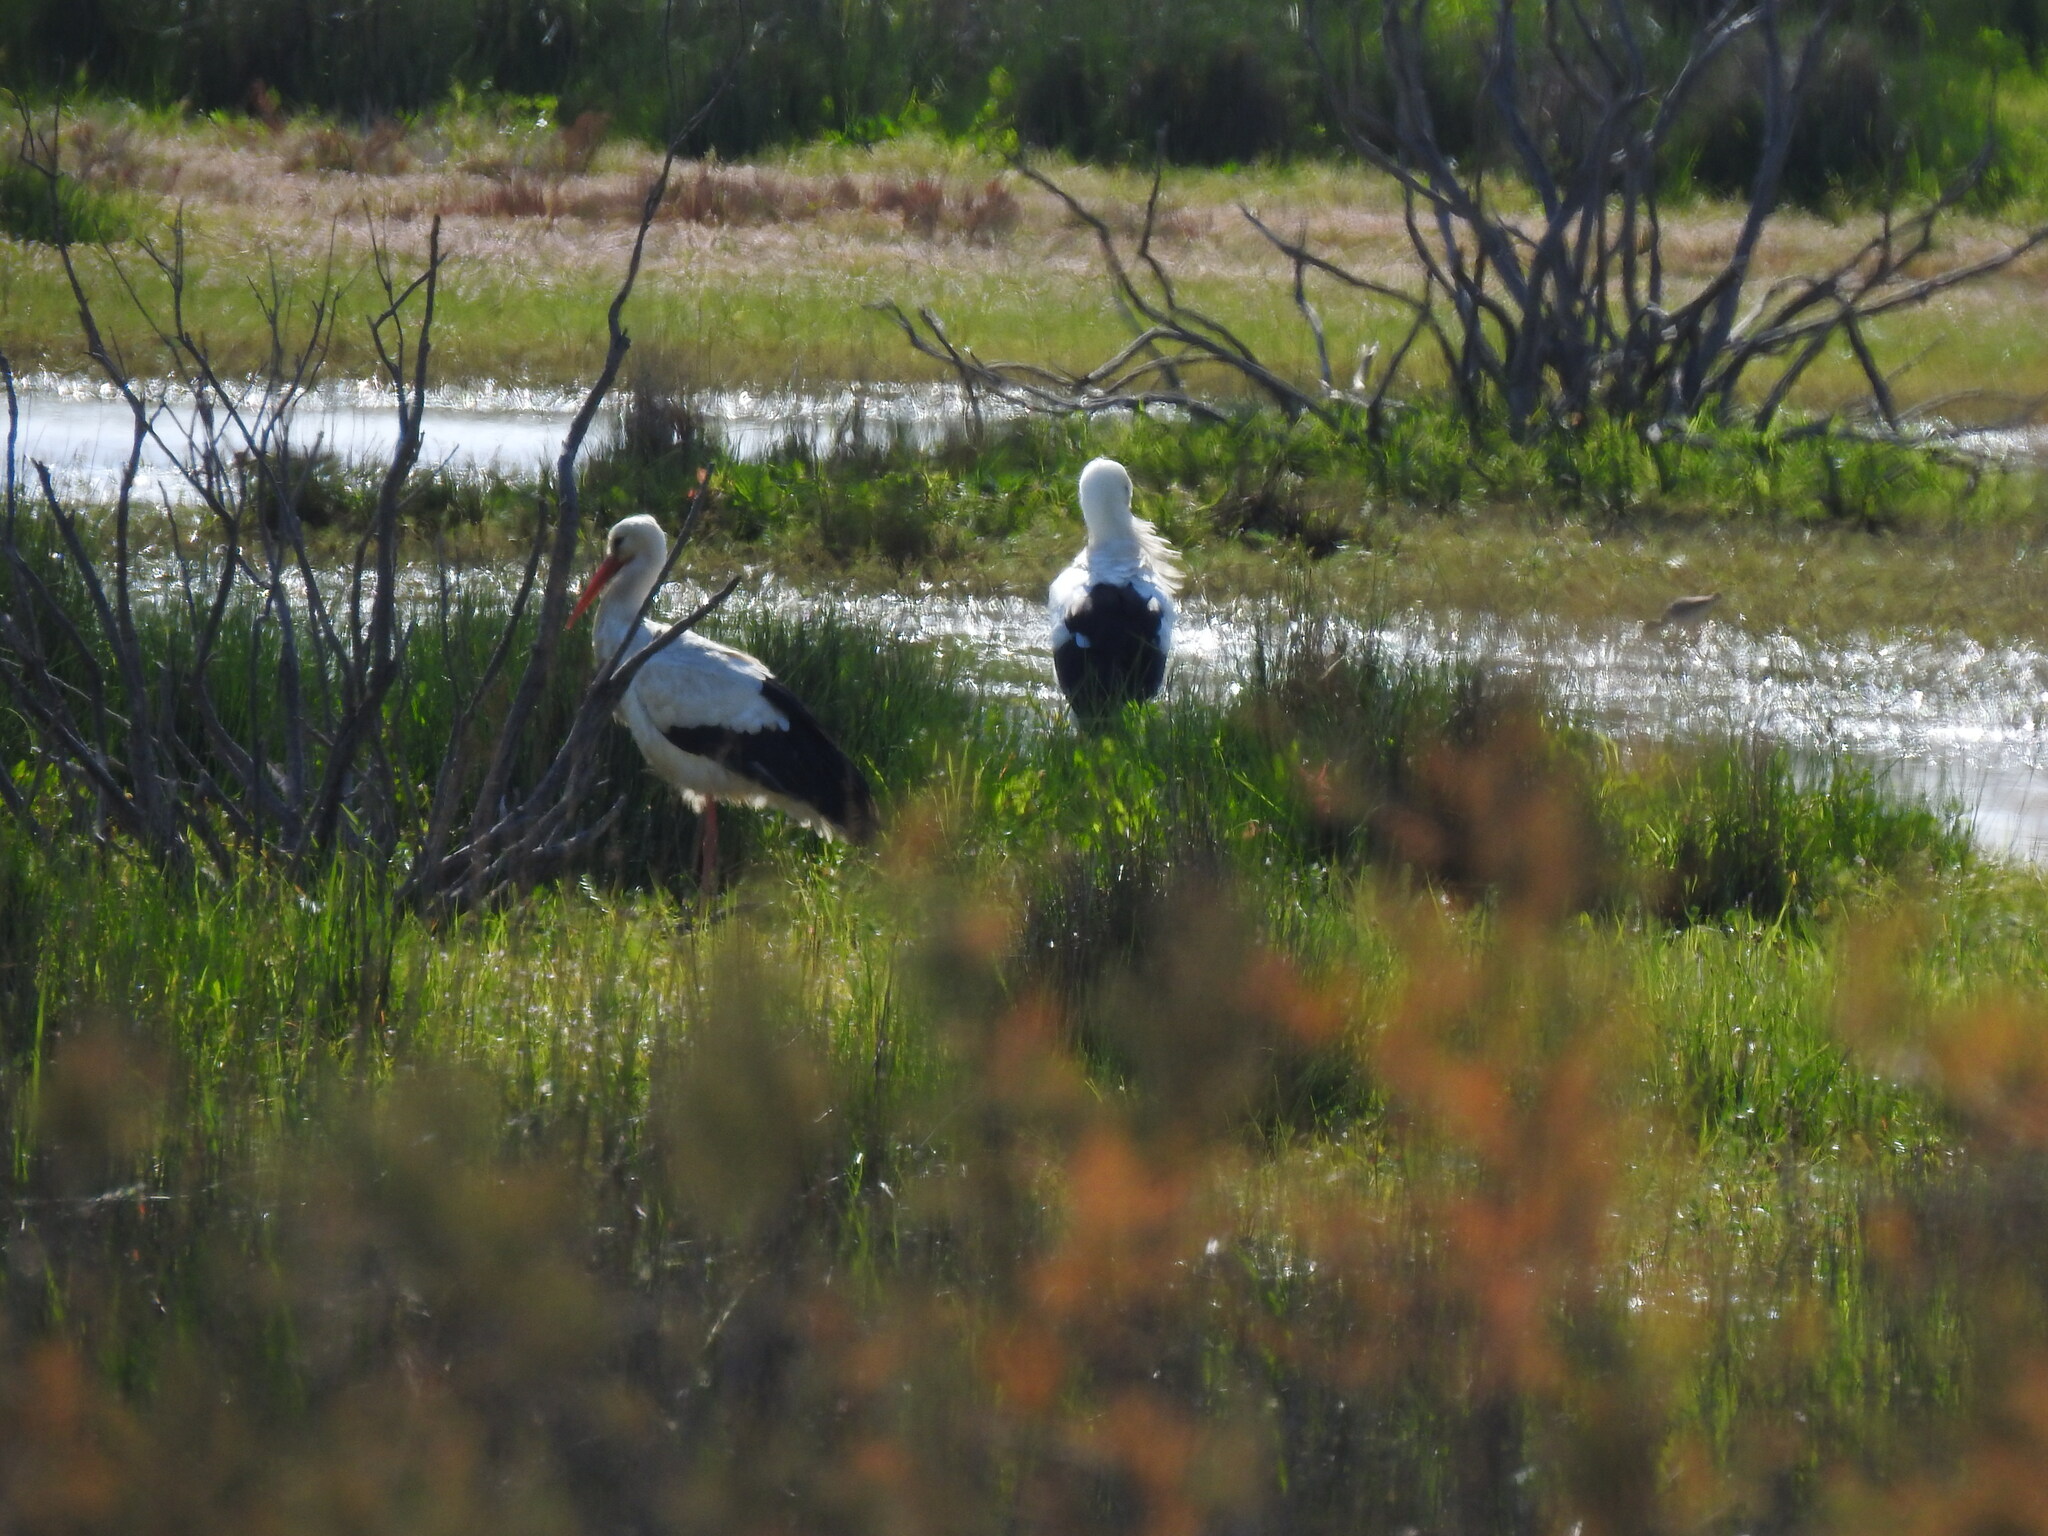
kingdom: Animalia
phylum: Chordata
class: Aves
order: Ciconiiformes
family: Ciconiidae
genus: Ciconia
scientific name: Ciconia ciconia
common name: White stork
